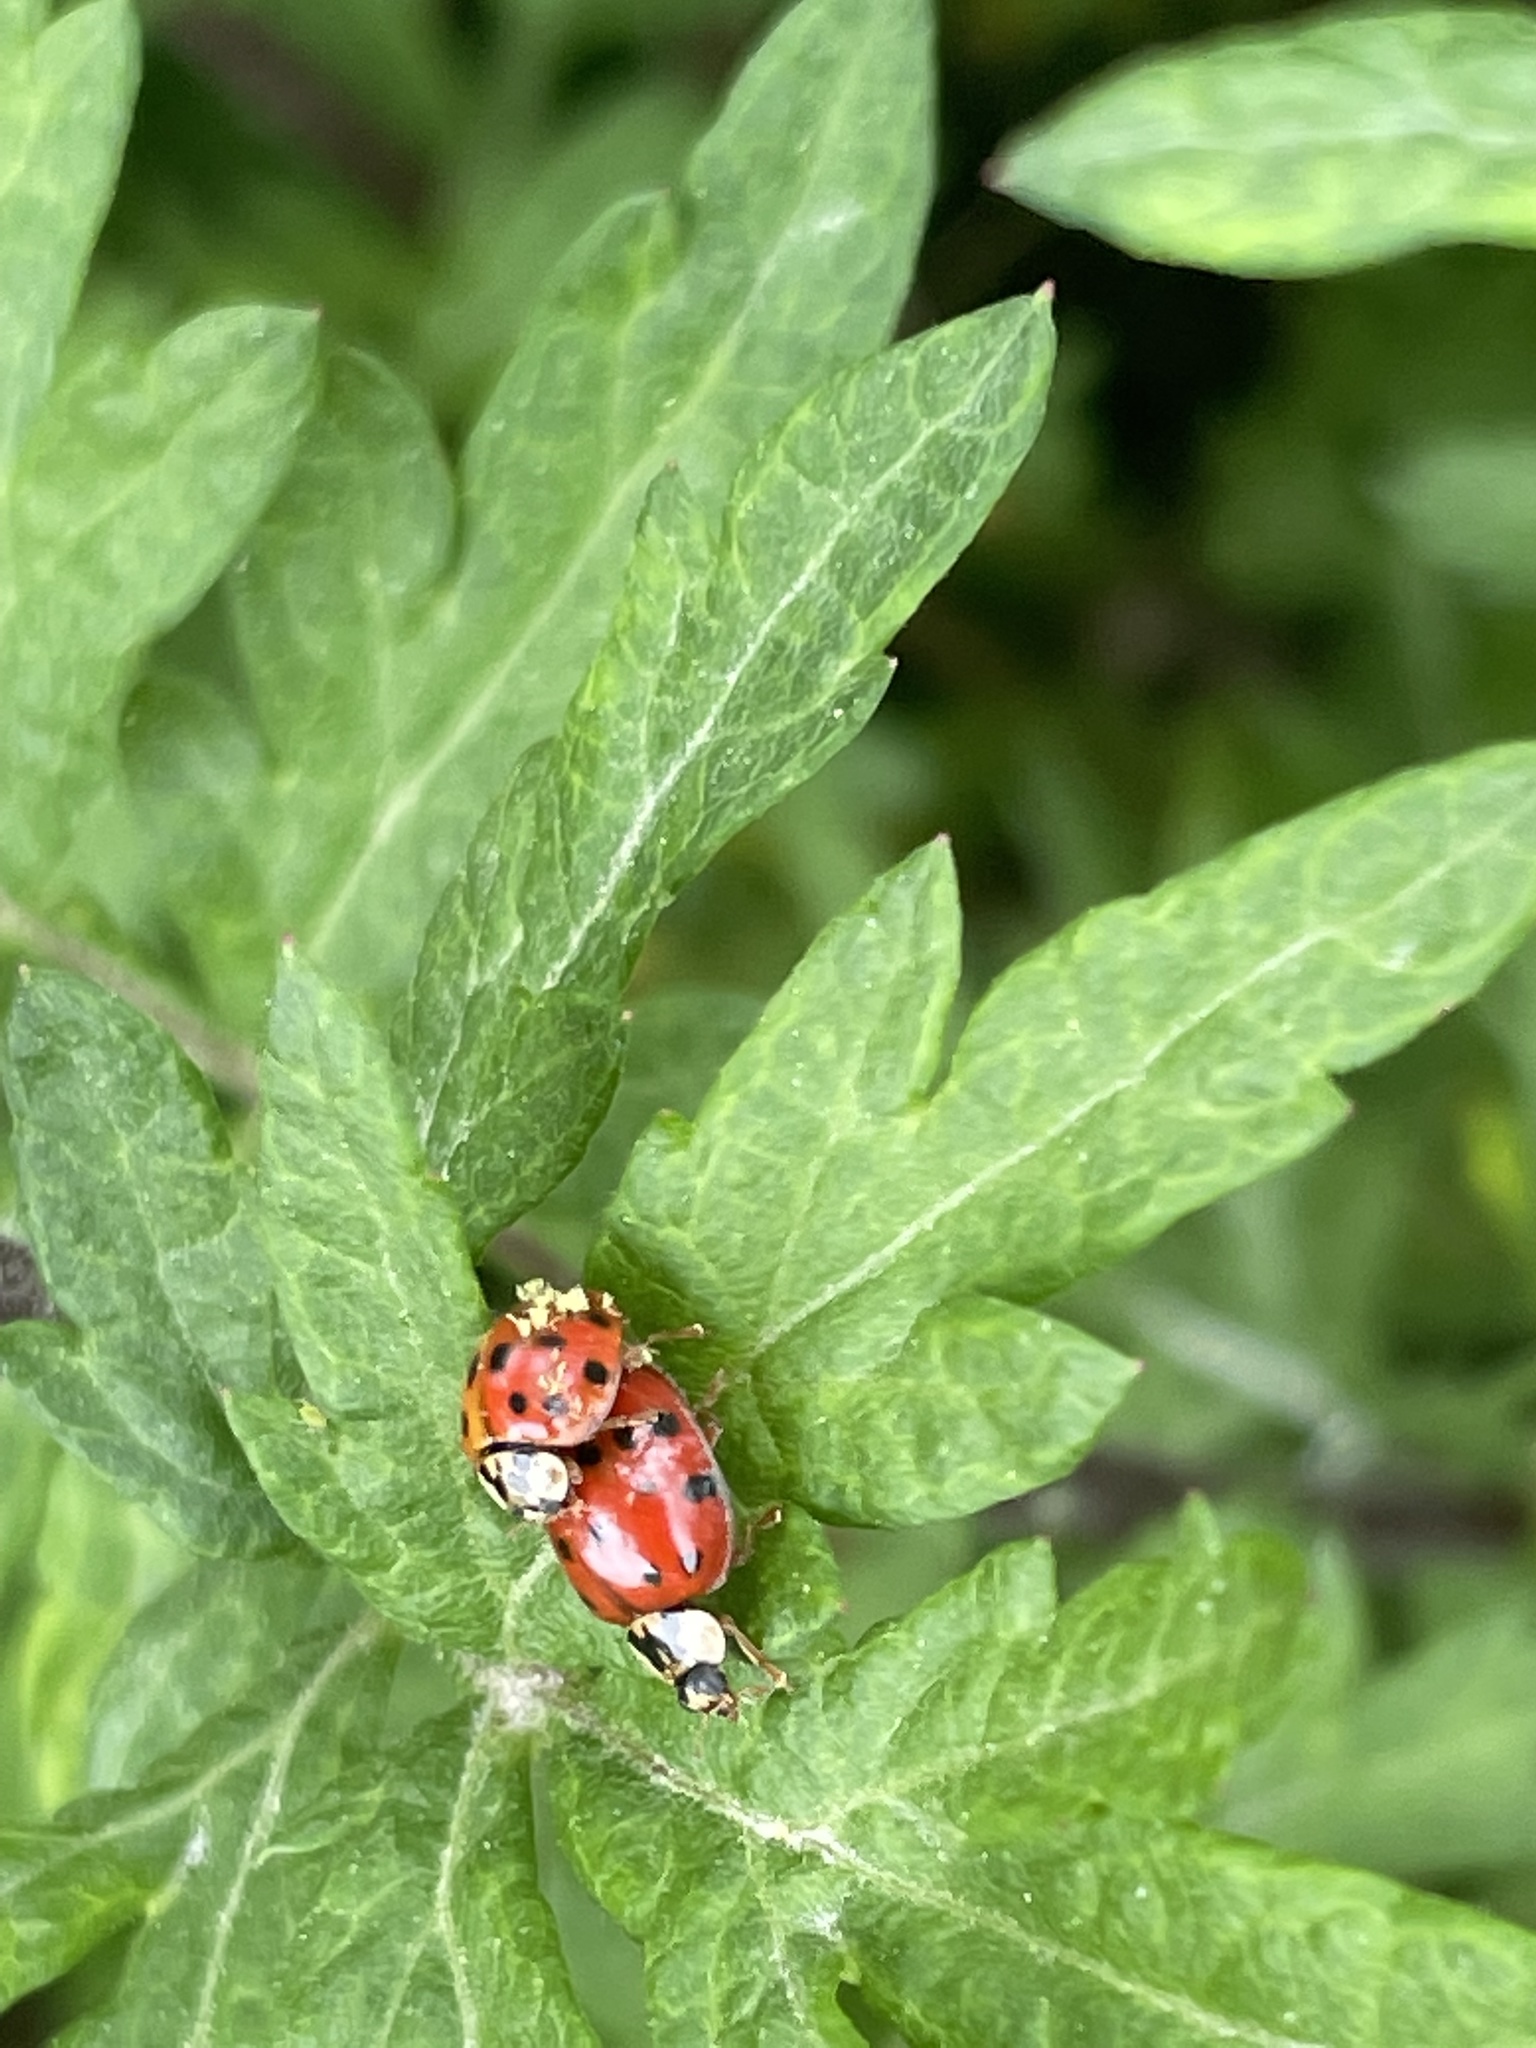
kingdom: Animalia
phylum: Arthropoda
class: Insecta
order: Coleoptera
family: Coccinellidae
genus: Harmonia
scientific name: Harmonia axyridis
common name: Harlequin ladybird
